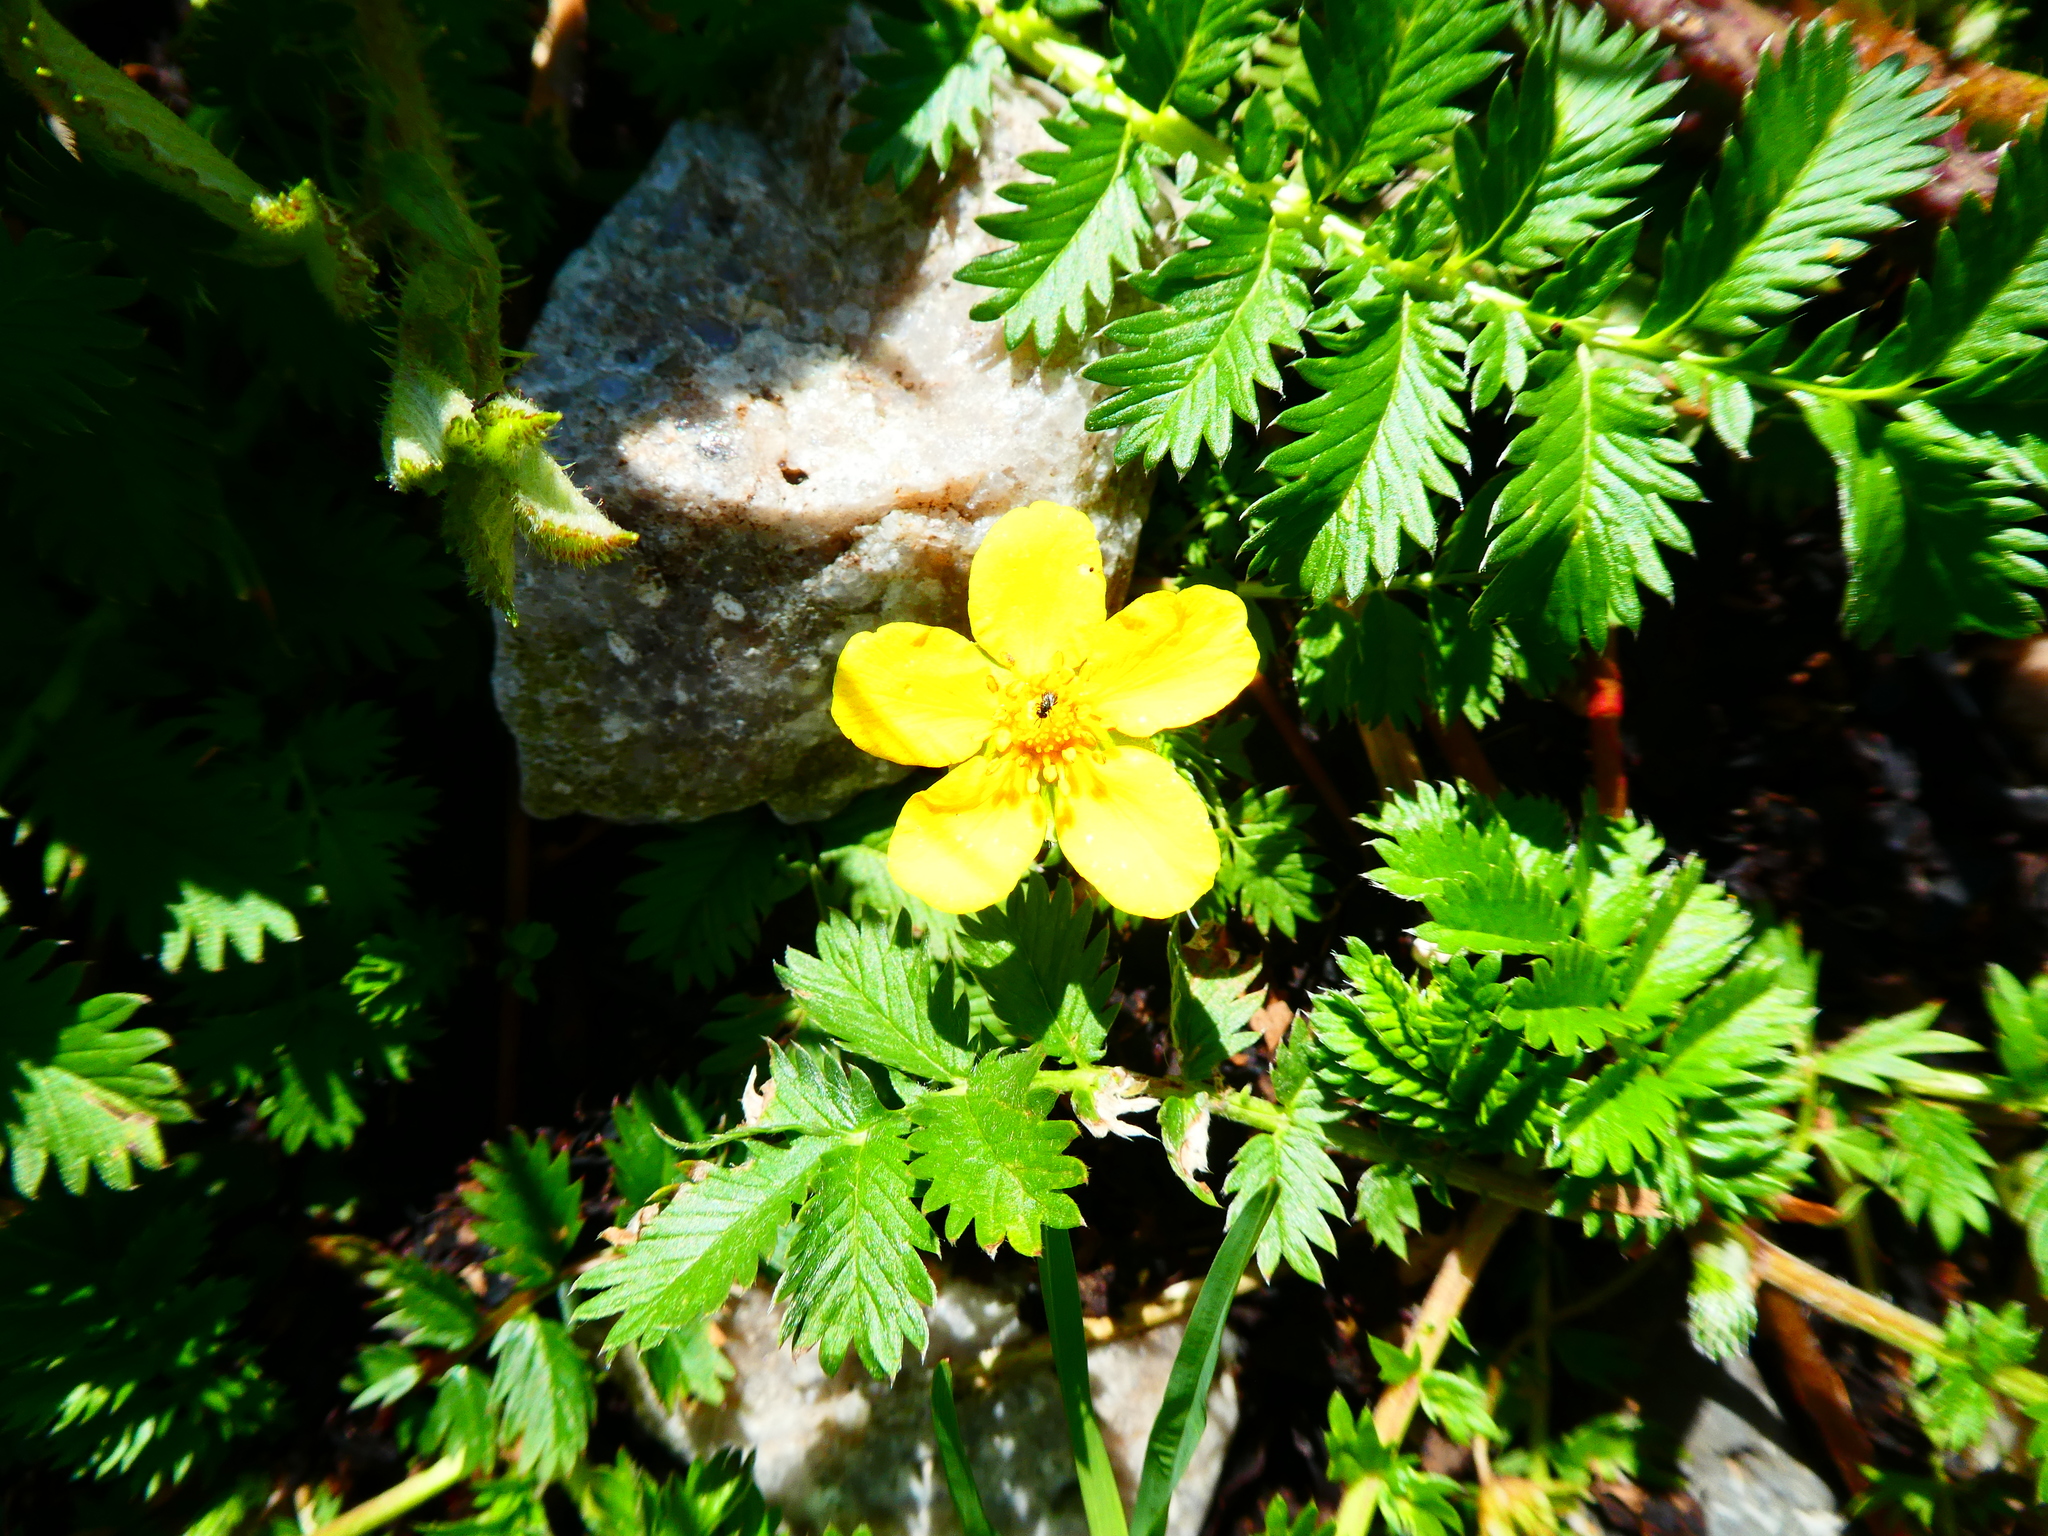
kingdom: Plantae
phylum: Tracheophyta
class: Magnoliopsida
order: Rosales
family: Rosaceae
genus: Argentina
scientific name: Argentina anserina
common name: Common silverweed
